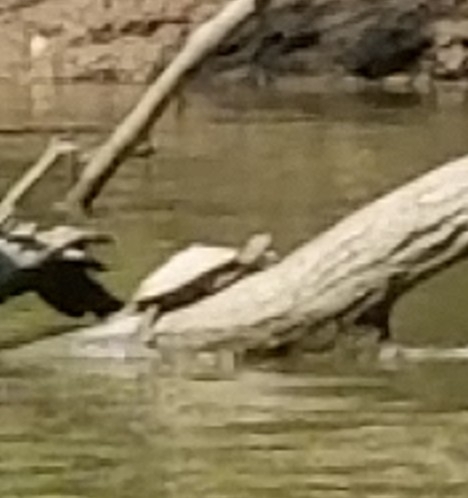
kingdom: Animalia
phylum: Chordata
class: Testudines
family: Emydidae
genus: Graptemys
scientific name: Graptemys ouachitensis
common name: Ouachita map turtle
